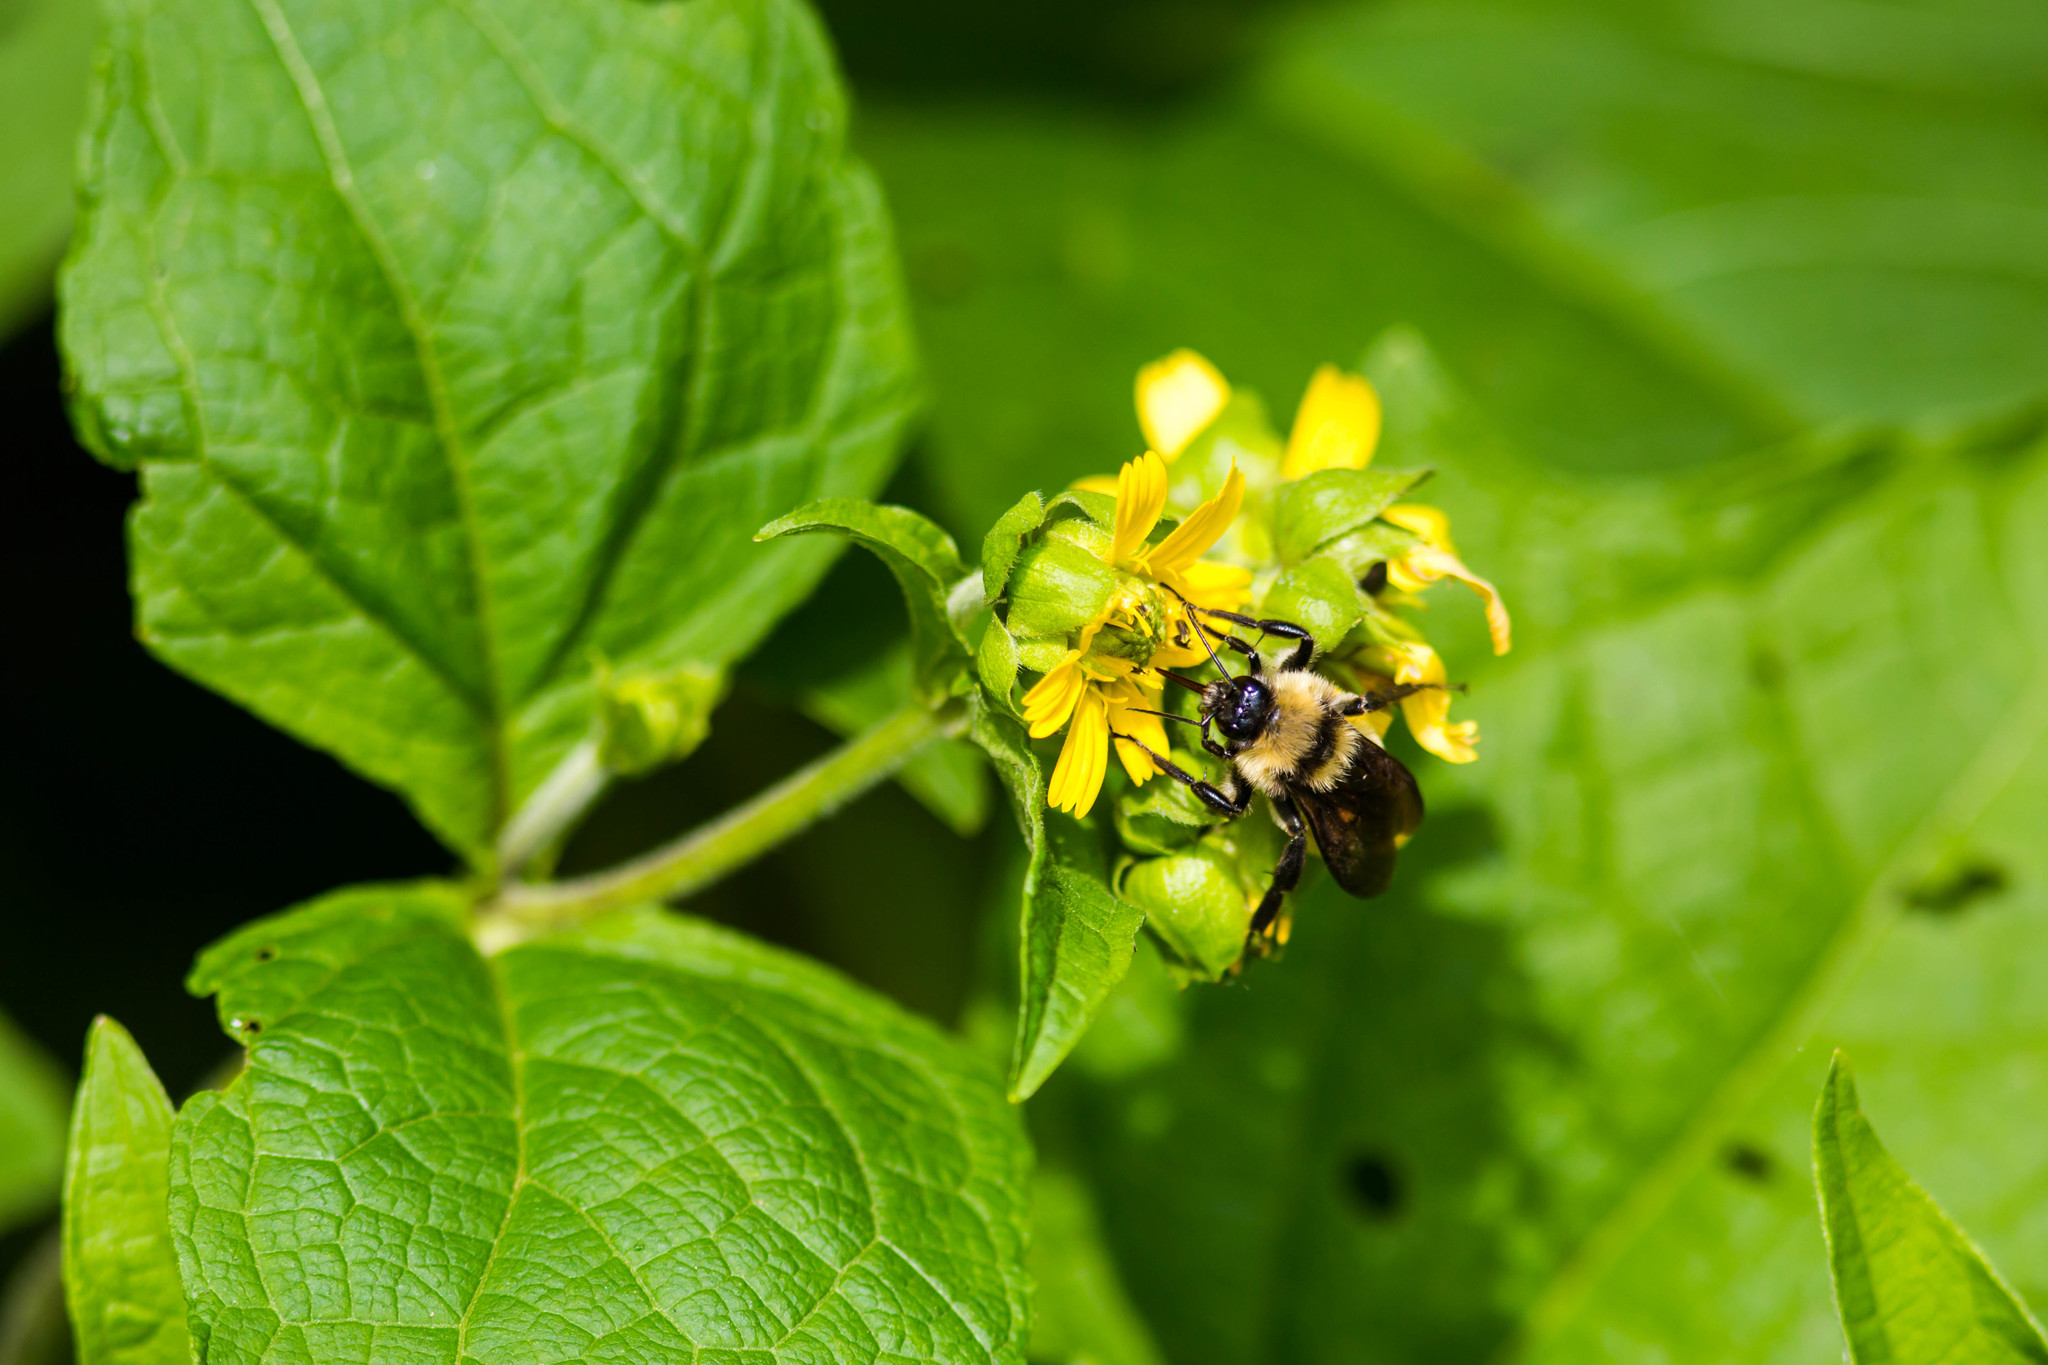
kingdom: Animalia
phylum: Arthropoda
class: Insecta
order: Hymenoptera
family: Apidae
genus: Bombus
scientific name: Bombus pensylvanicus
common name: Bumble bee
